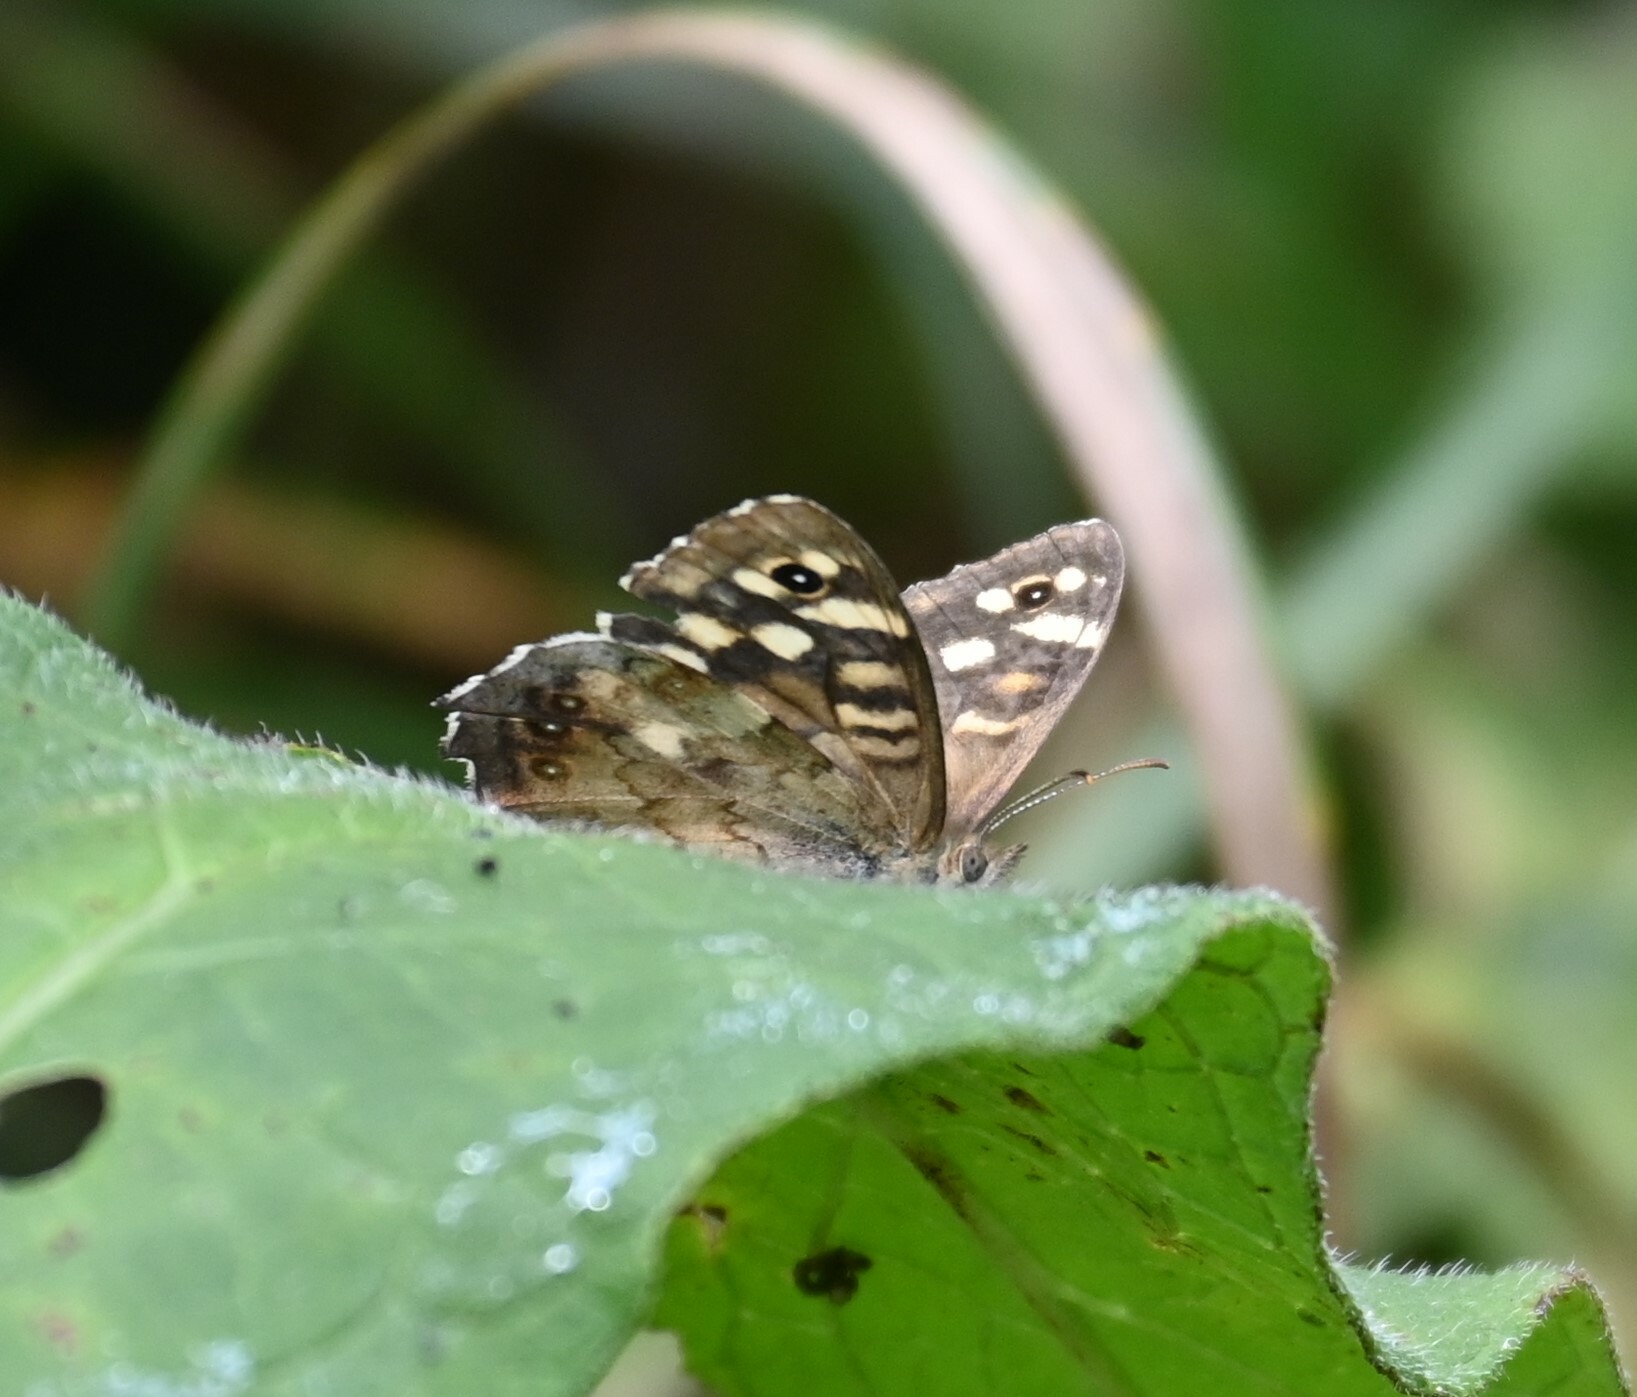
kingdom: Animalia
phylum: Arthropoda
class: Insecta
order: Lepidoptera
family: Nymphalidae
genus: Pararge
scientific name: Pararge aegeria
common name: Speckled wood
